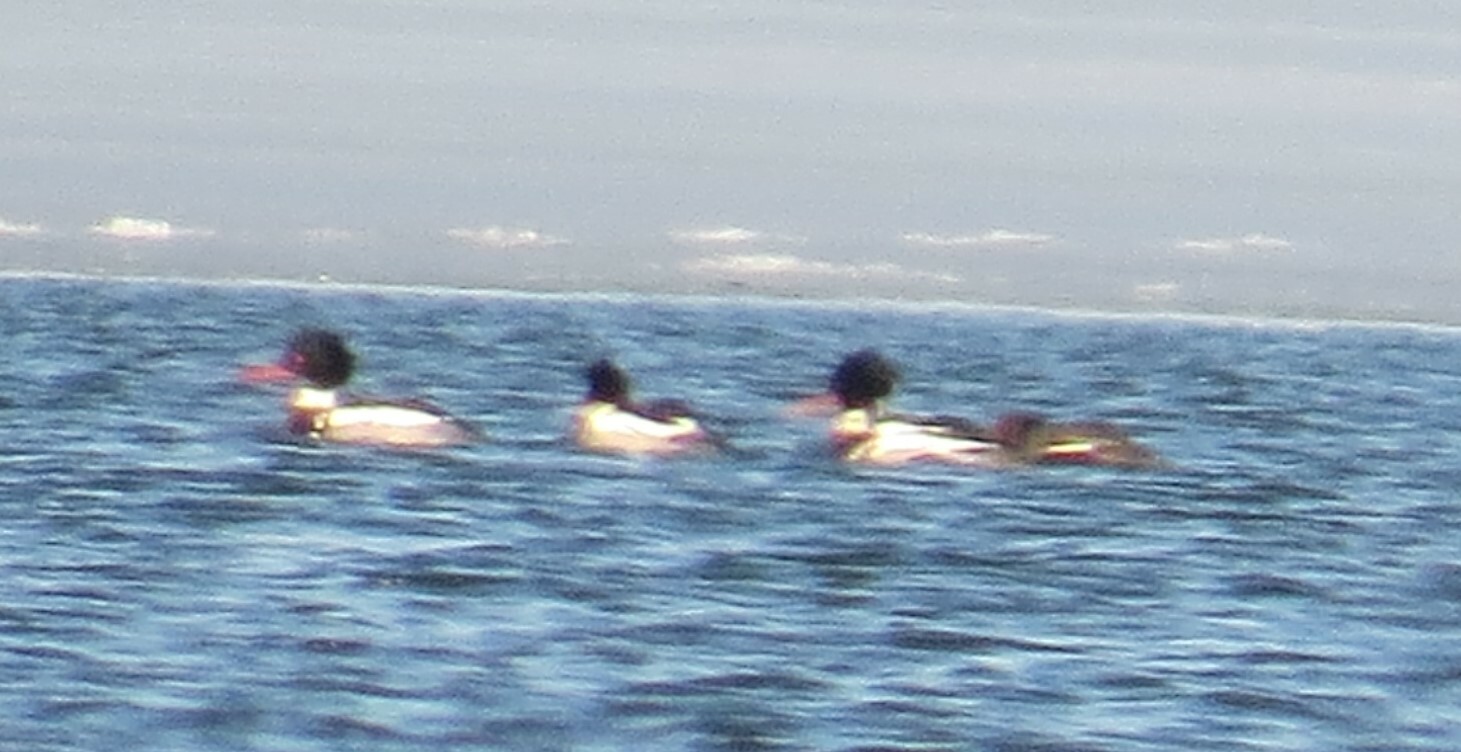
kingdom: Animalia
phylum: Chordata
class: Aves
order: Anseriformes
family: Anatidae
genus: Mergus
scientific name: Mergus serrator
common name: Red-breasted merganser
